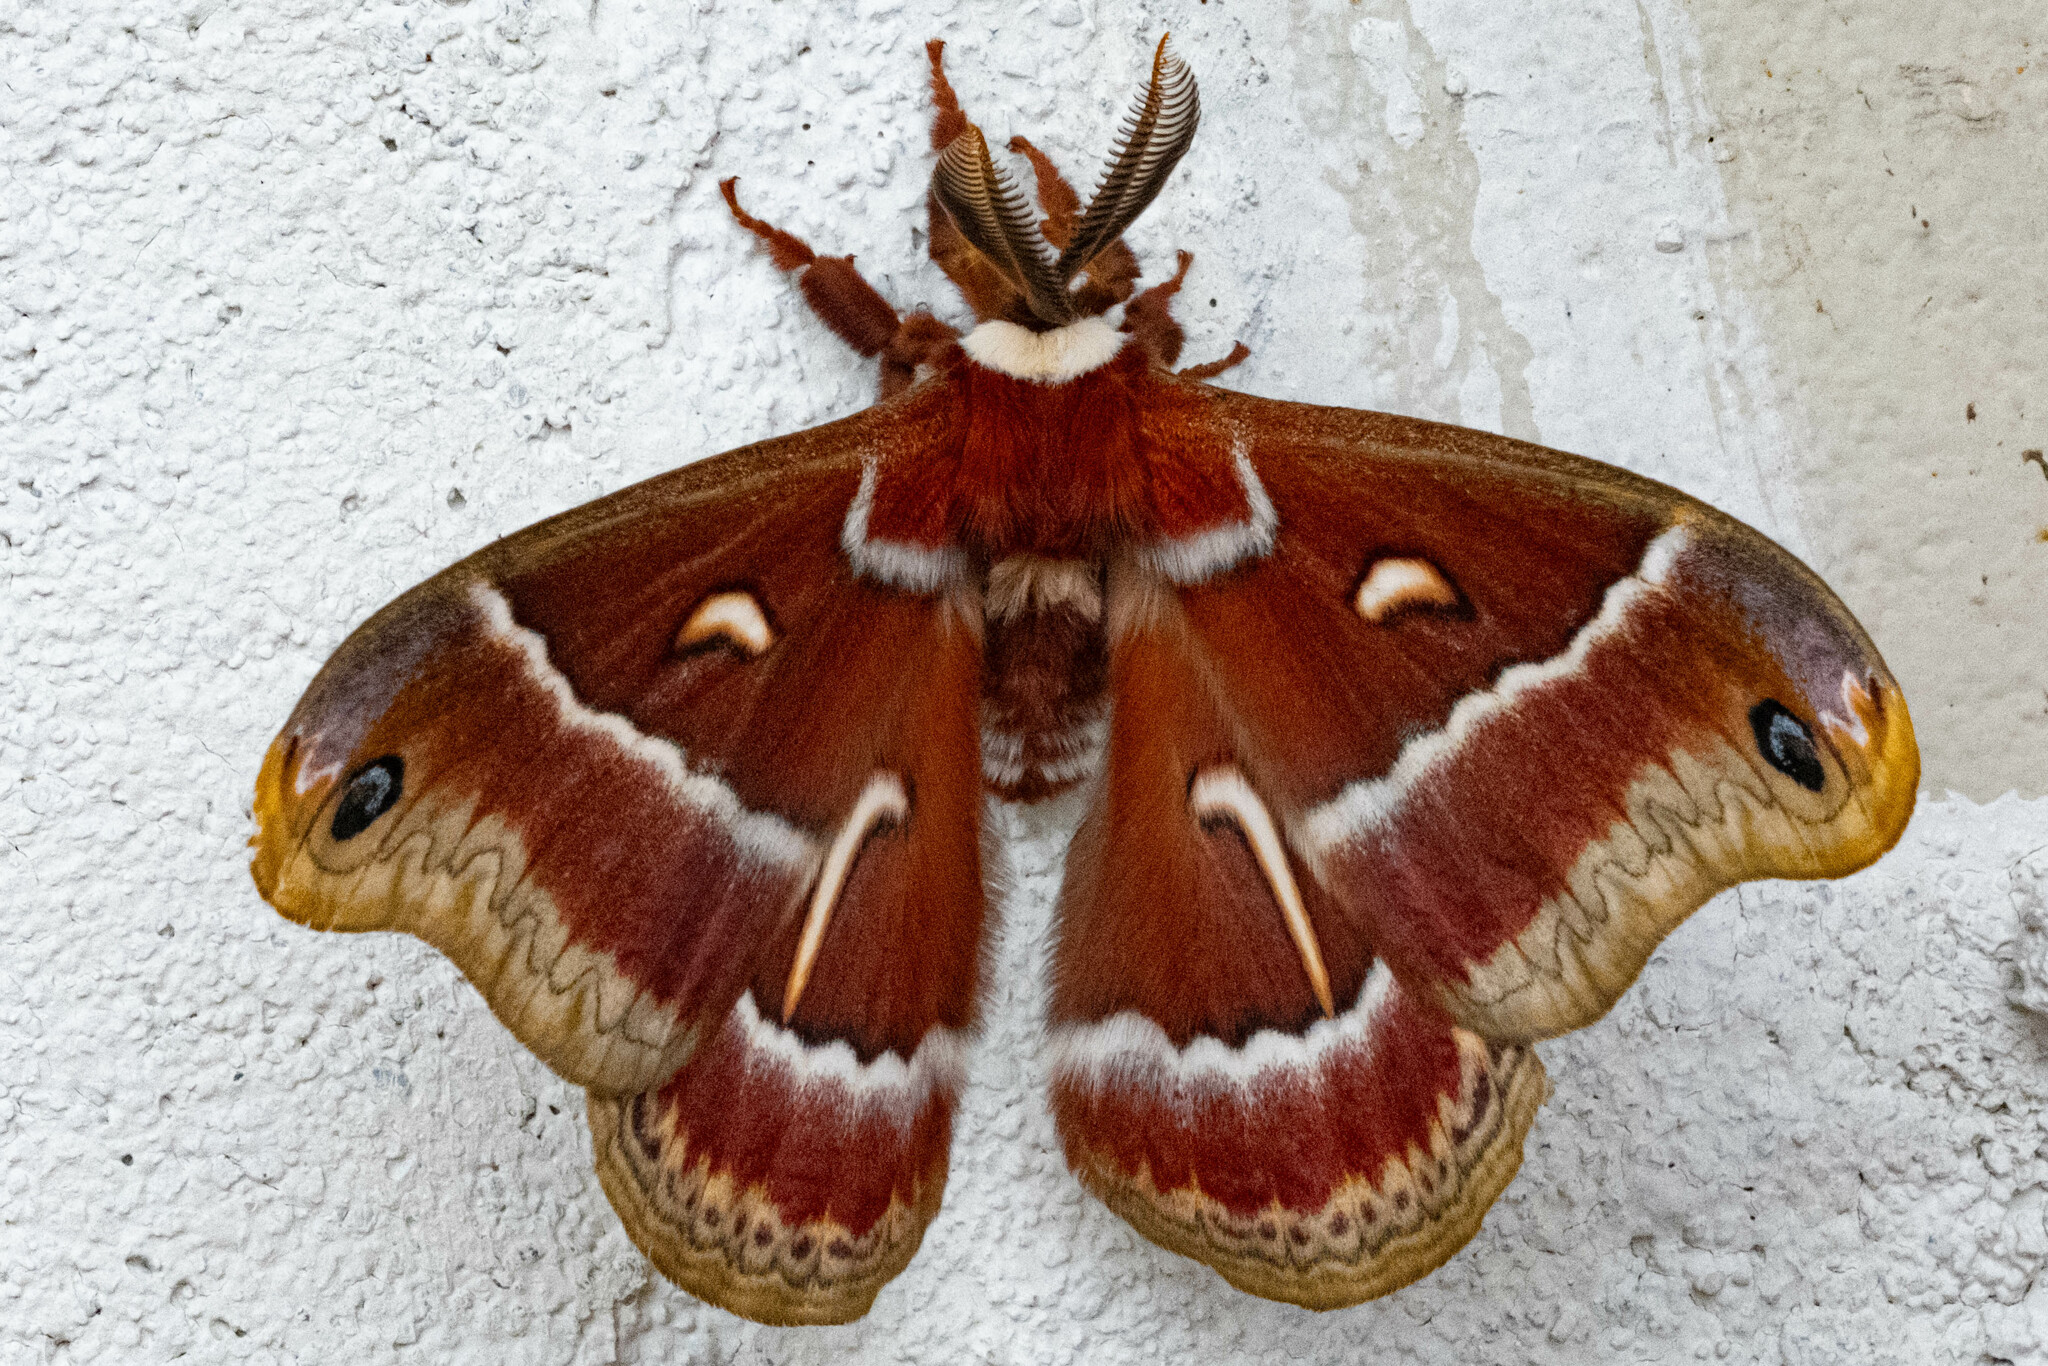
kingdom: Animalia
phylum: Arthropoda
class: Insecta
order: Lepidoptera
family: Saturniidae
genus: Hyalophora
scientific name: Hyalophora euryalus
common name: Ceanothus silkmoth
